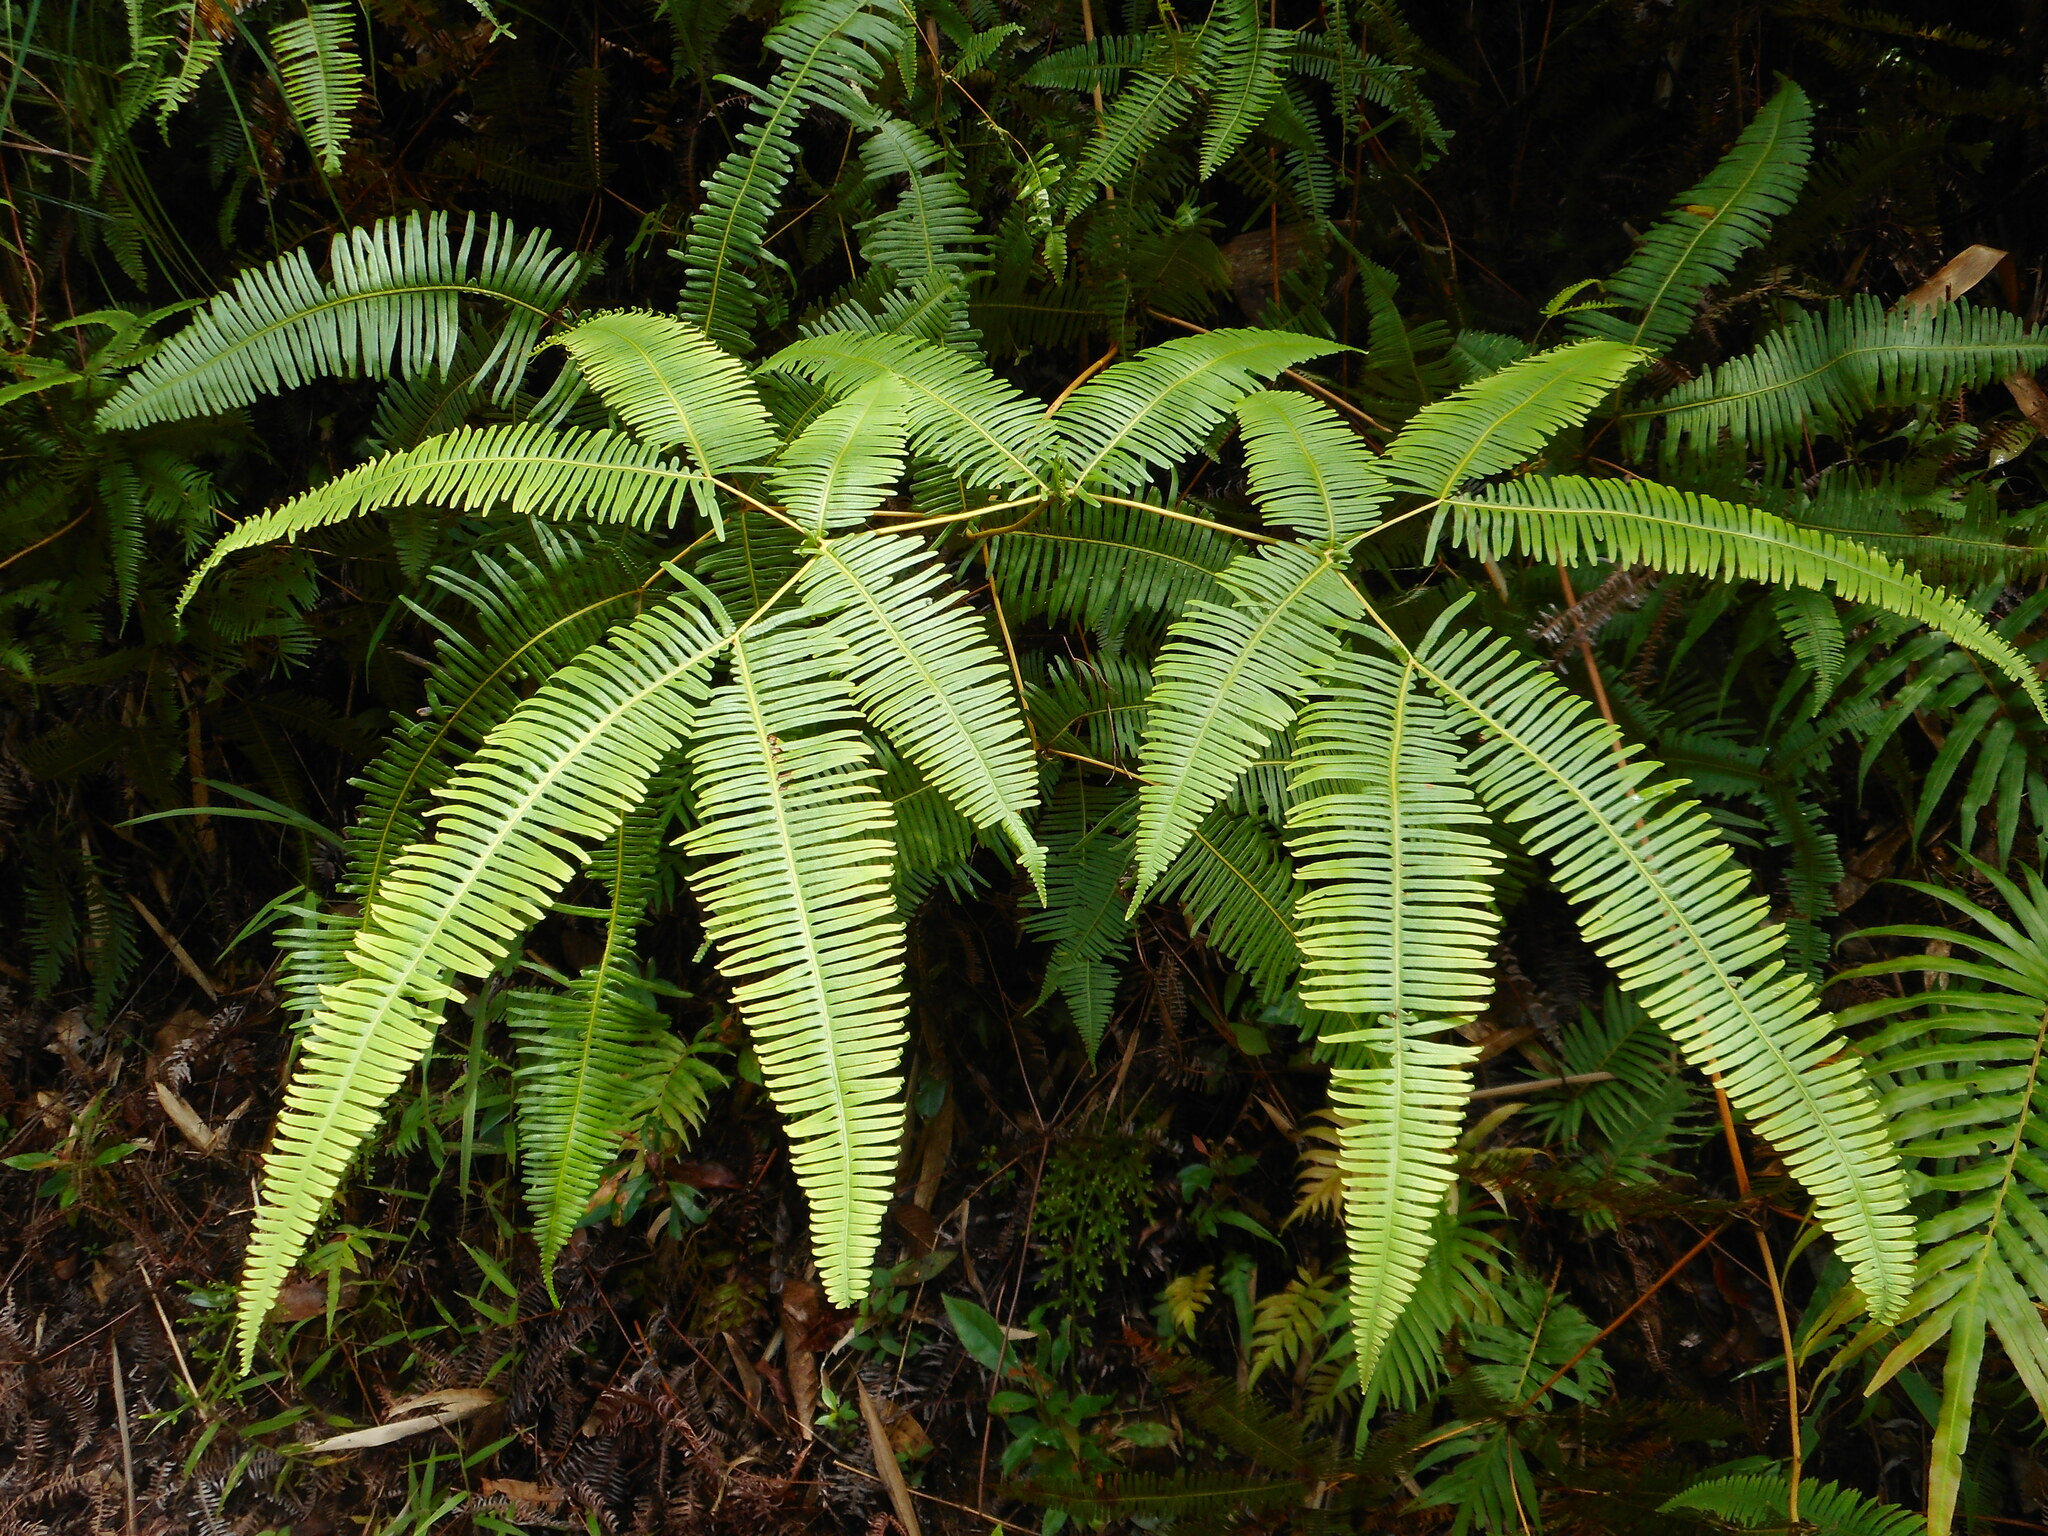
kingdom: Plantae
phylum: Tracheophyta
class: Polypodiopsida
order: Gleicheniales
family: Gleicheniaceae
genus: Dicranopteris
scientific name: Dicranopteris linearis
